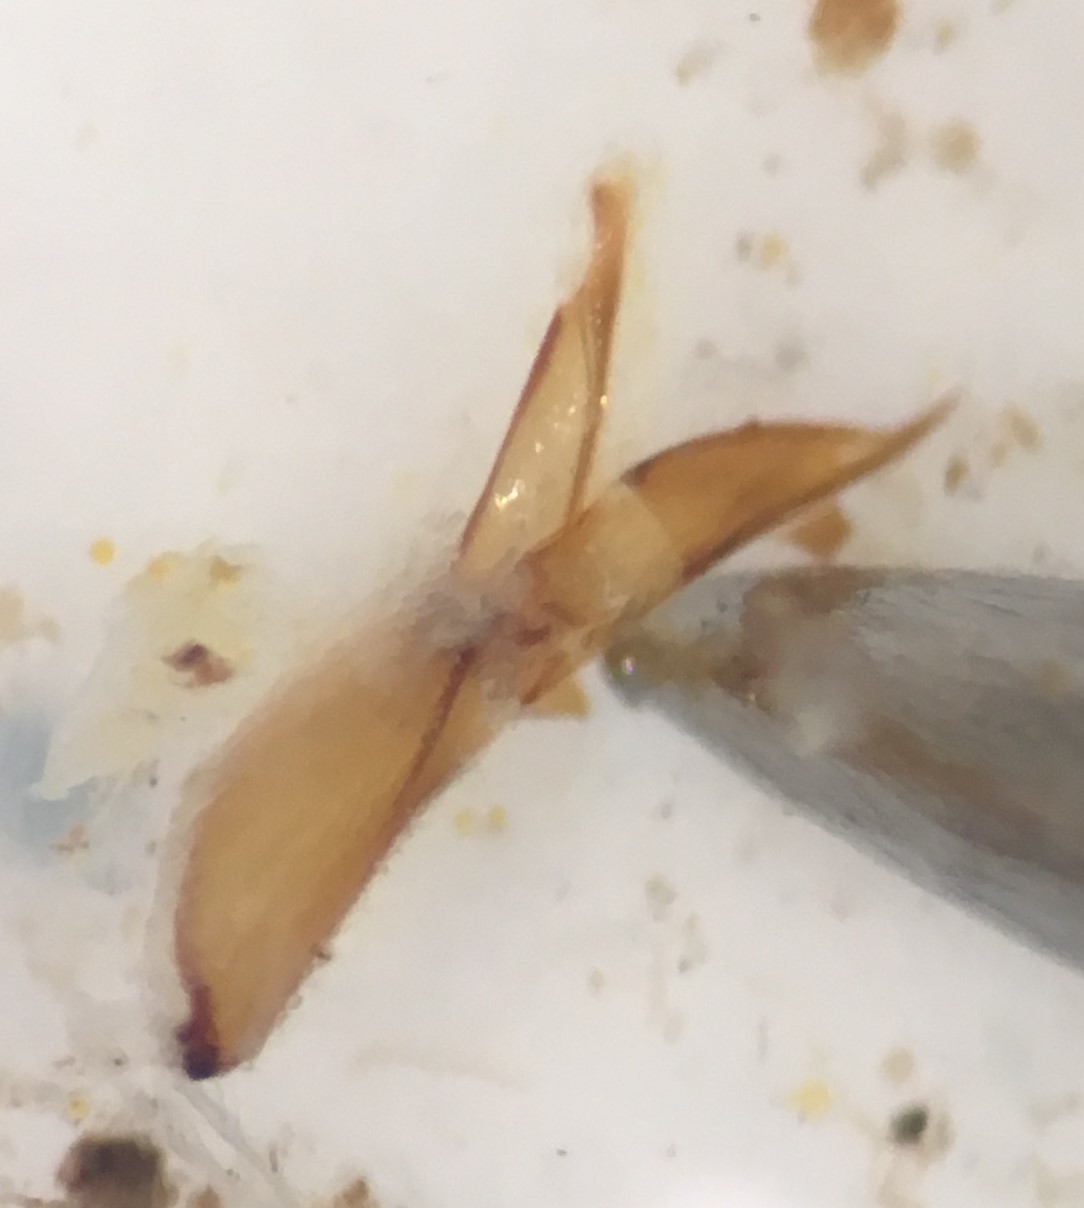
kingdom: Animalia
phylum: Arthropoda
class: Insecta
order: Coleoptera
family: Hydrochidae
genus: Hydrochus
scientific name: Hydrochus rufipes
